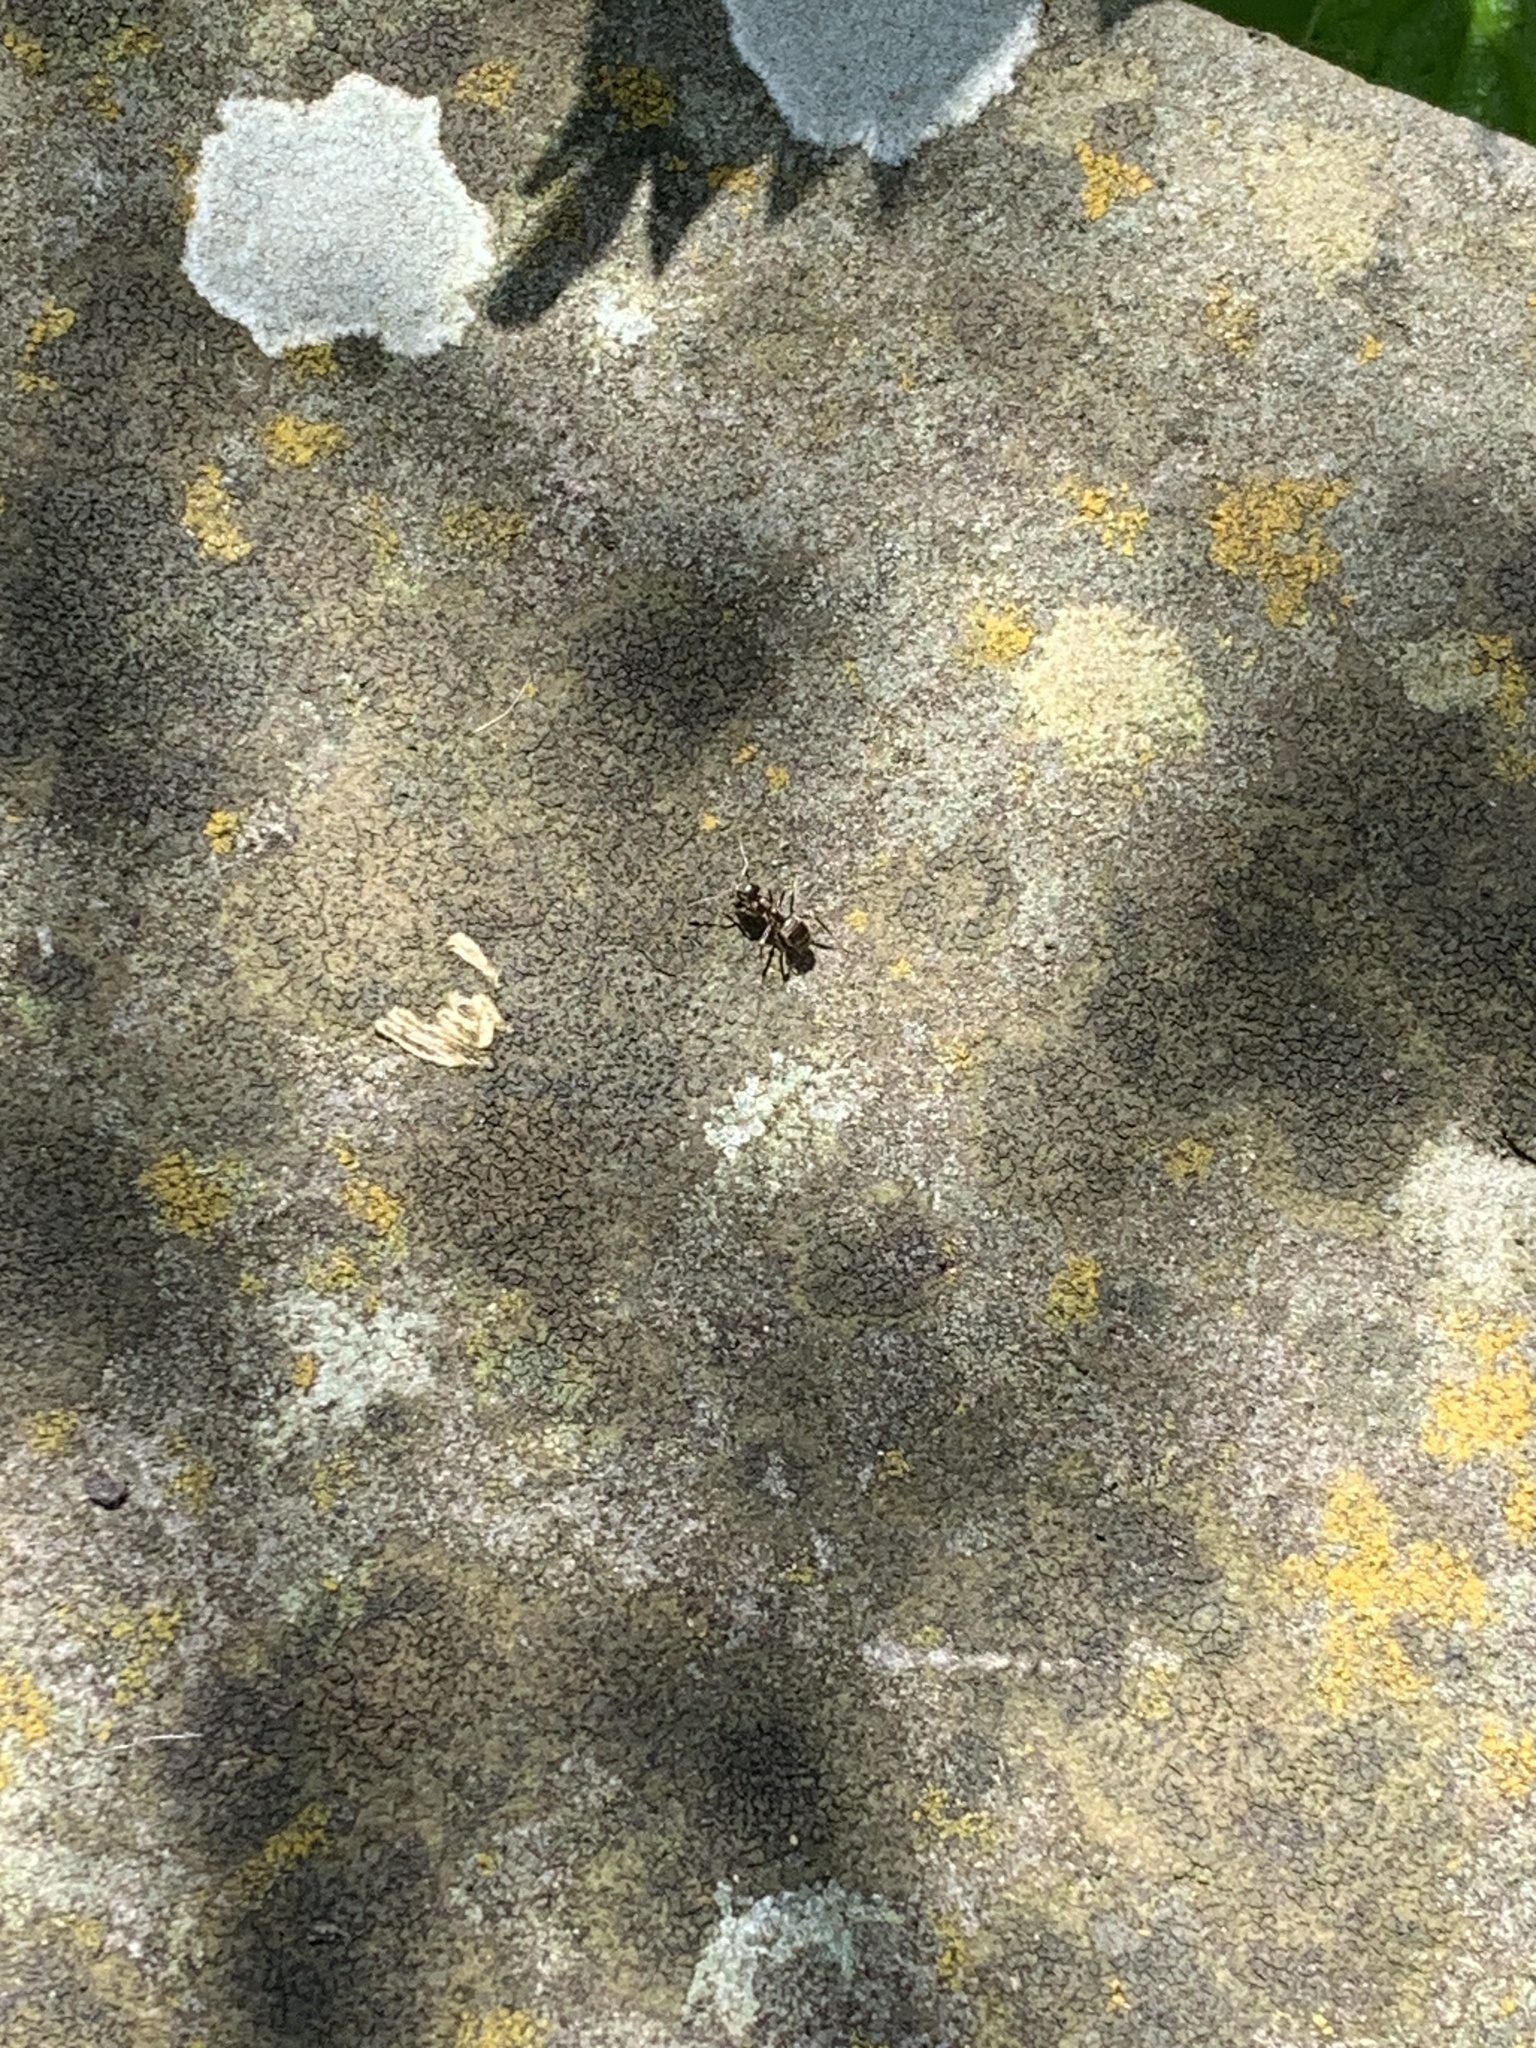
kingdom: Animalia
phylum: Arthropoda
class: Insecta
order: Hymenoptera
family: Formicidae
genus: Lasius
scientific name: Lasius niger
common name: Small black ant
